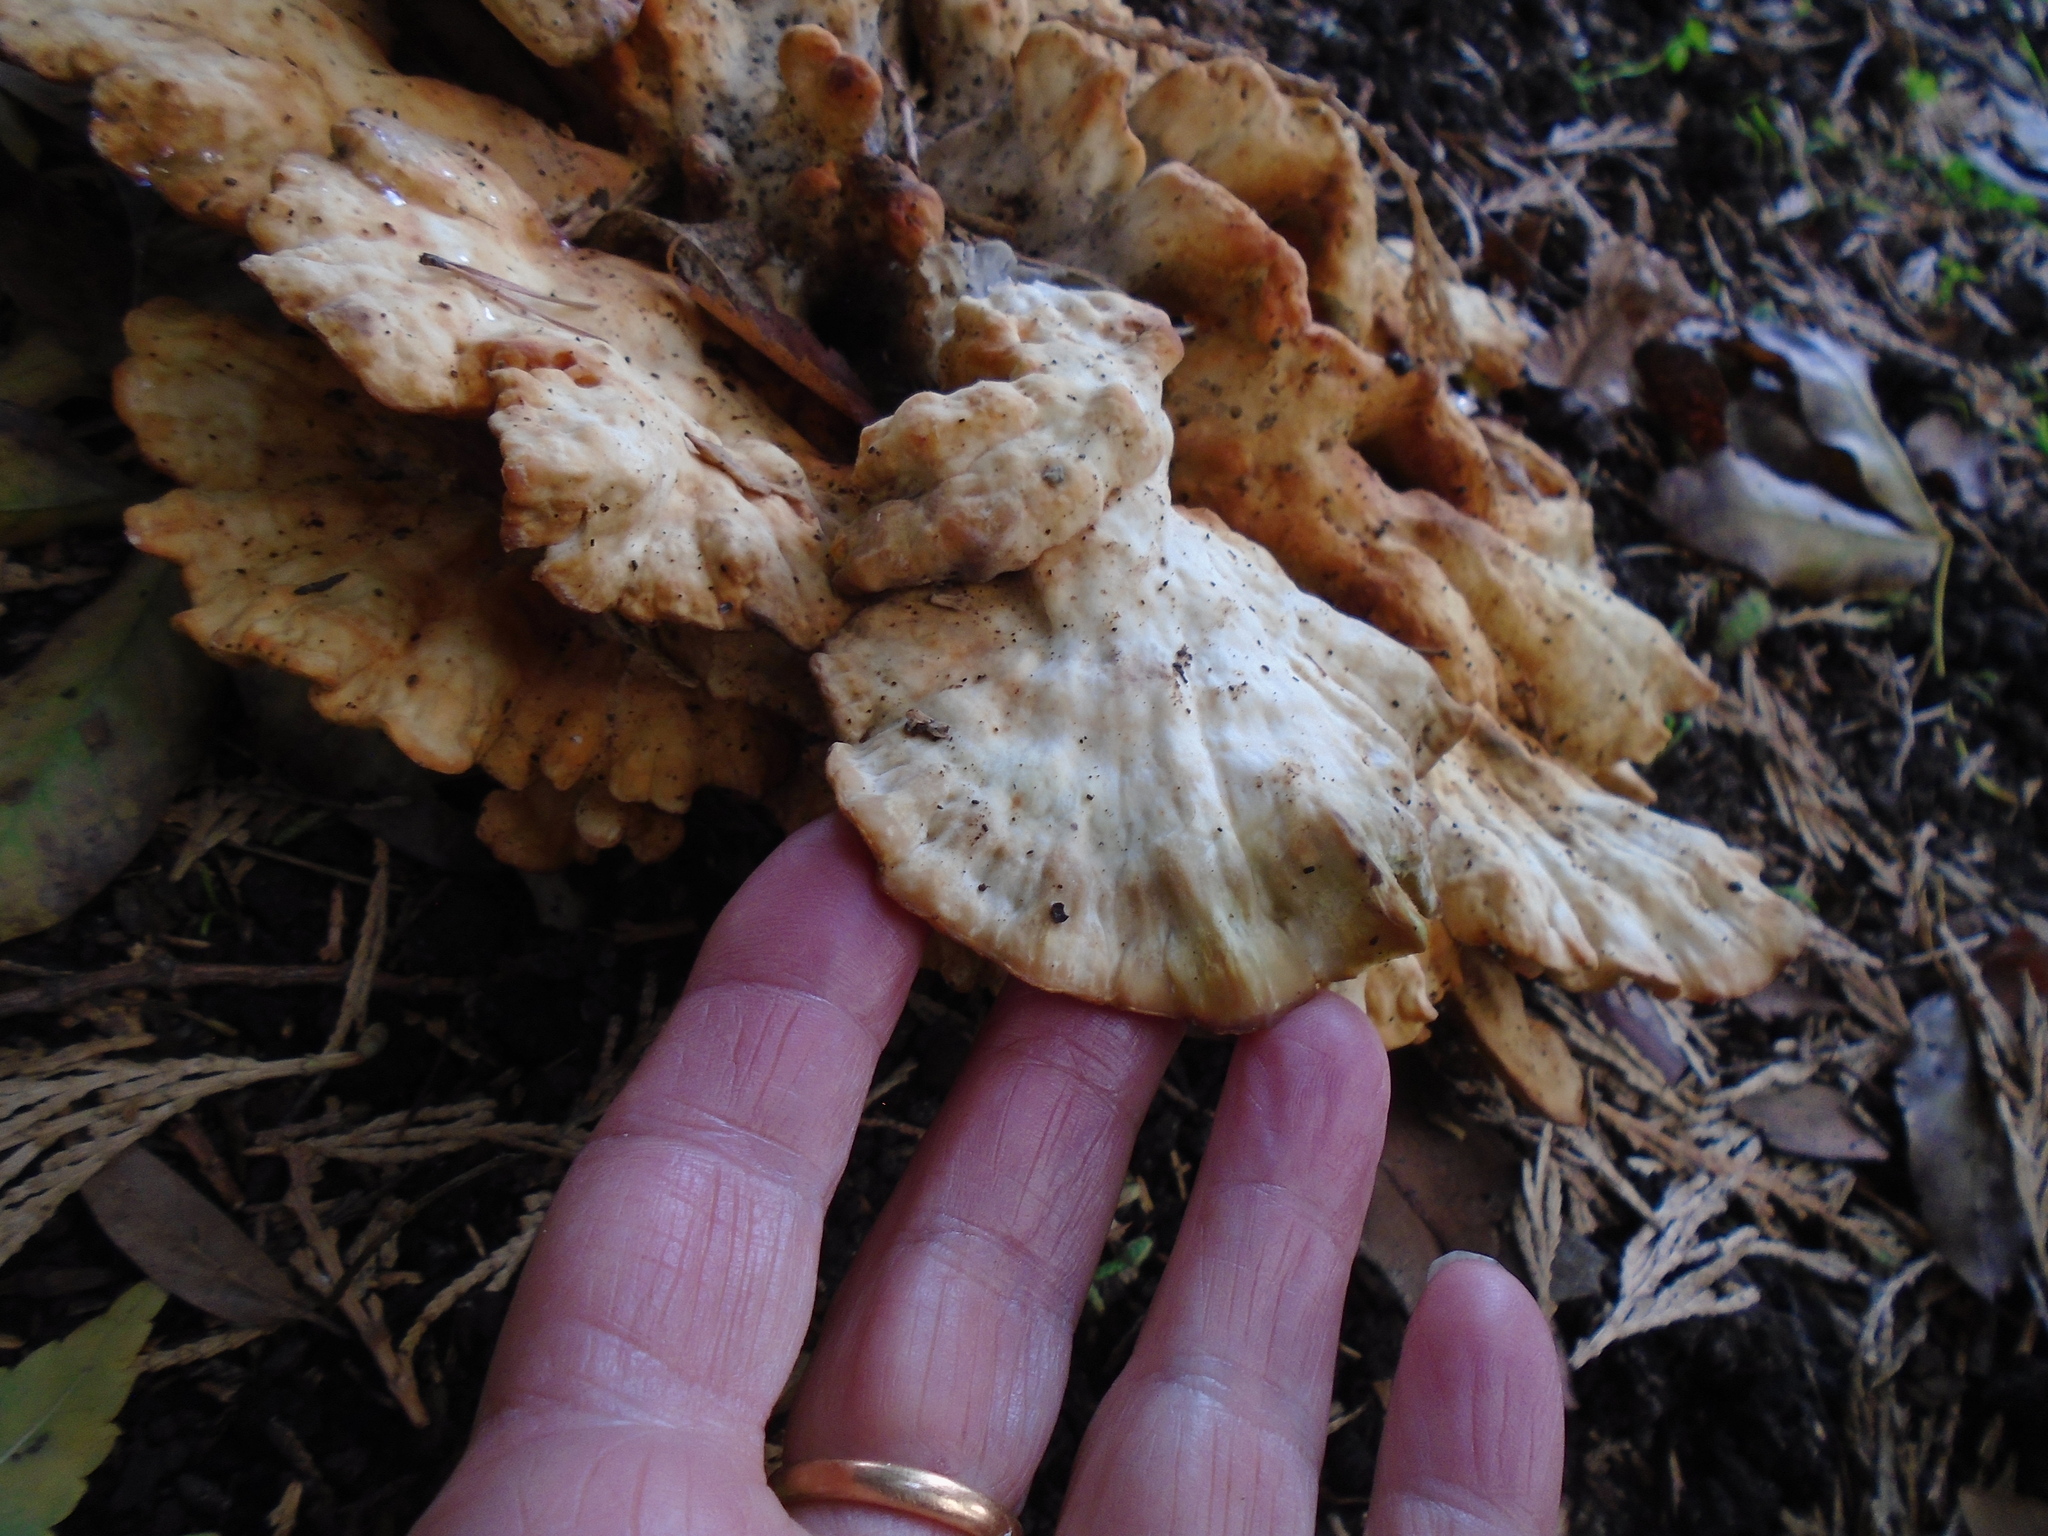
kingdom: Fungi
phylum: Basidiomycota
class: Agaricomycetes
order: Polyporales
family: Laetiporaceae
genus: Laetiporus
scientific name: Laetiporus sulphureus
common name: Chicken of the woods
